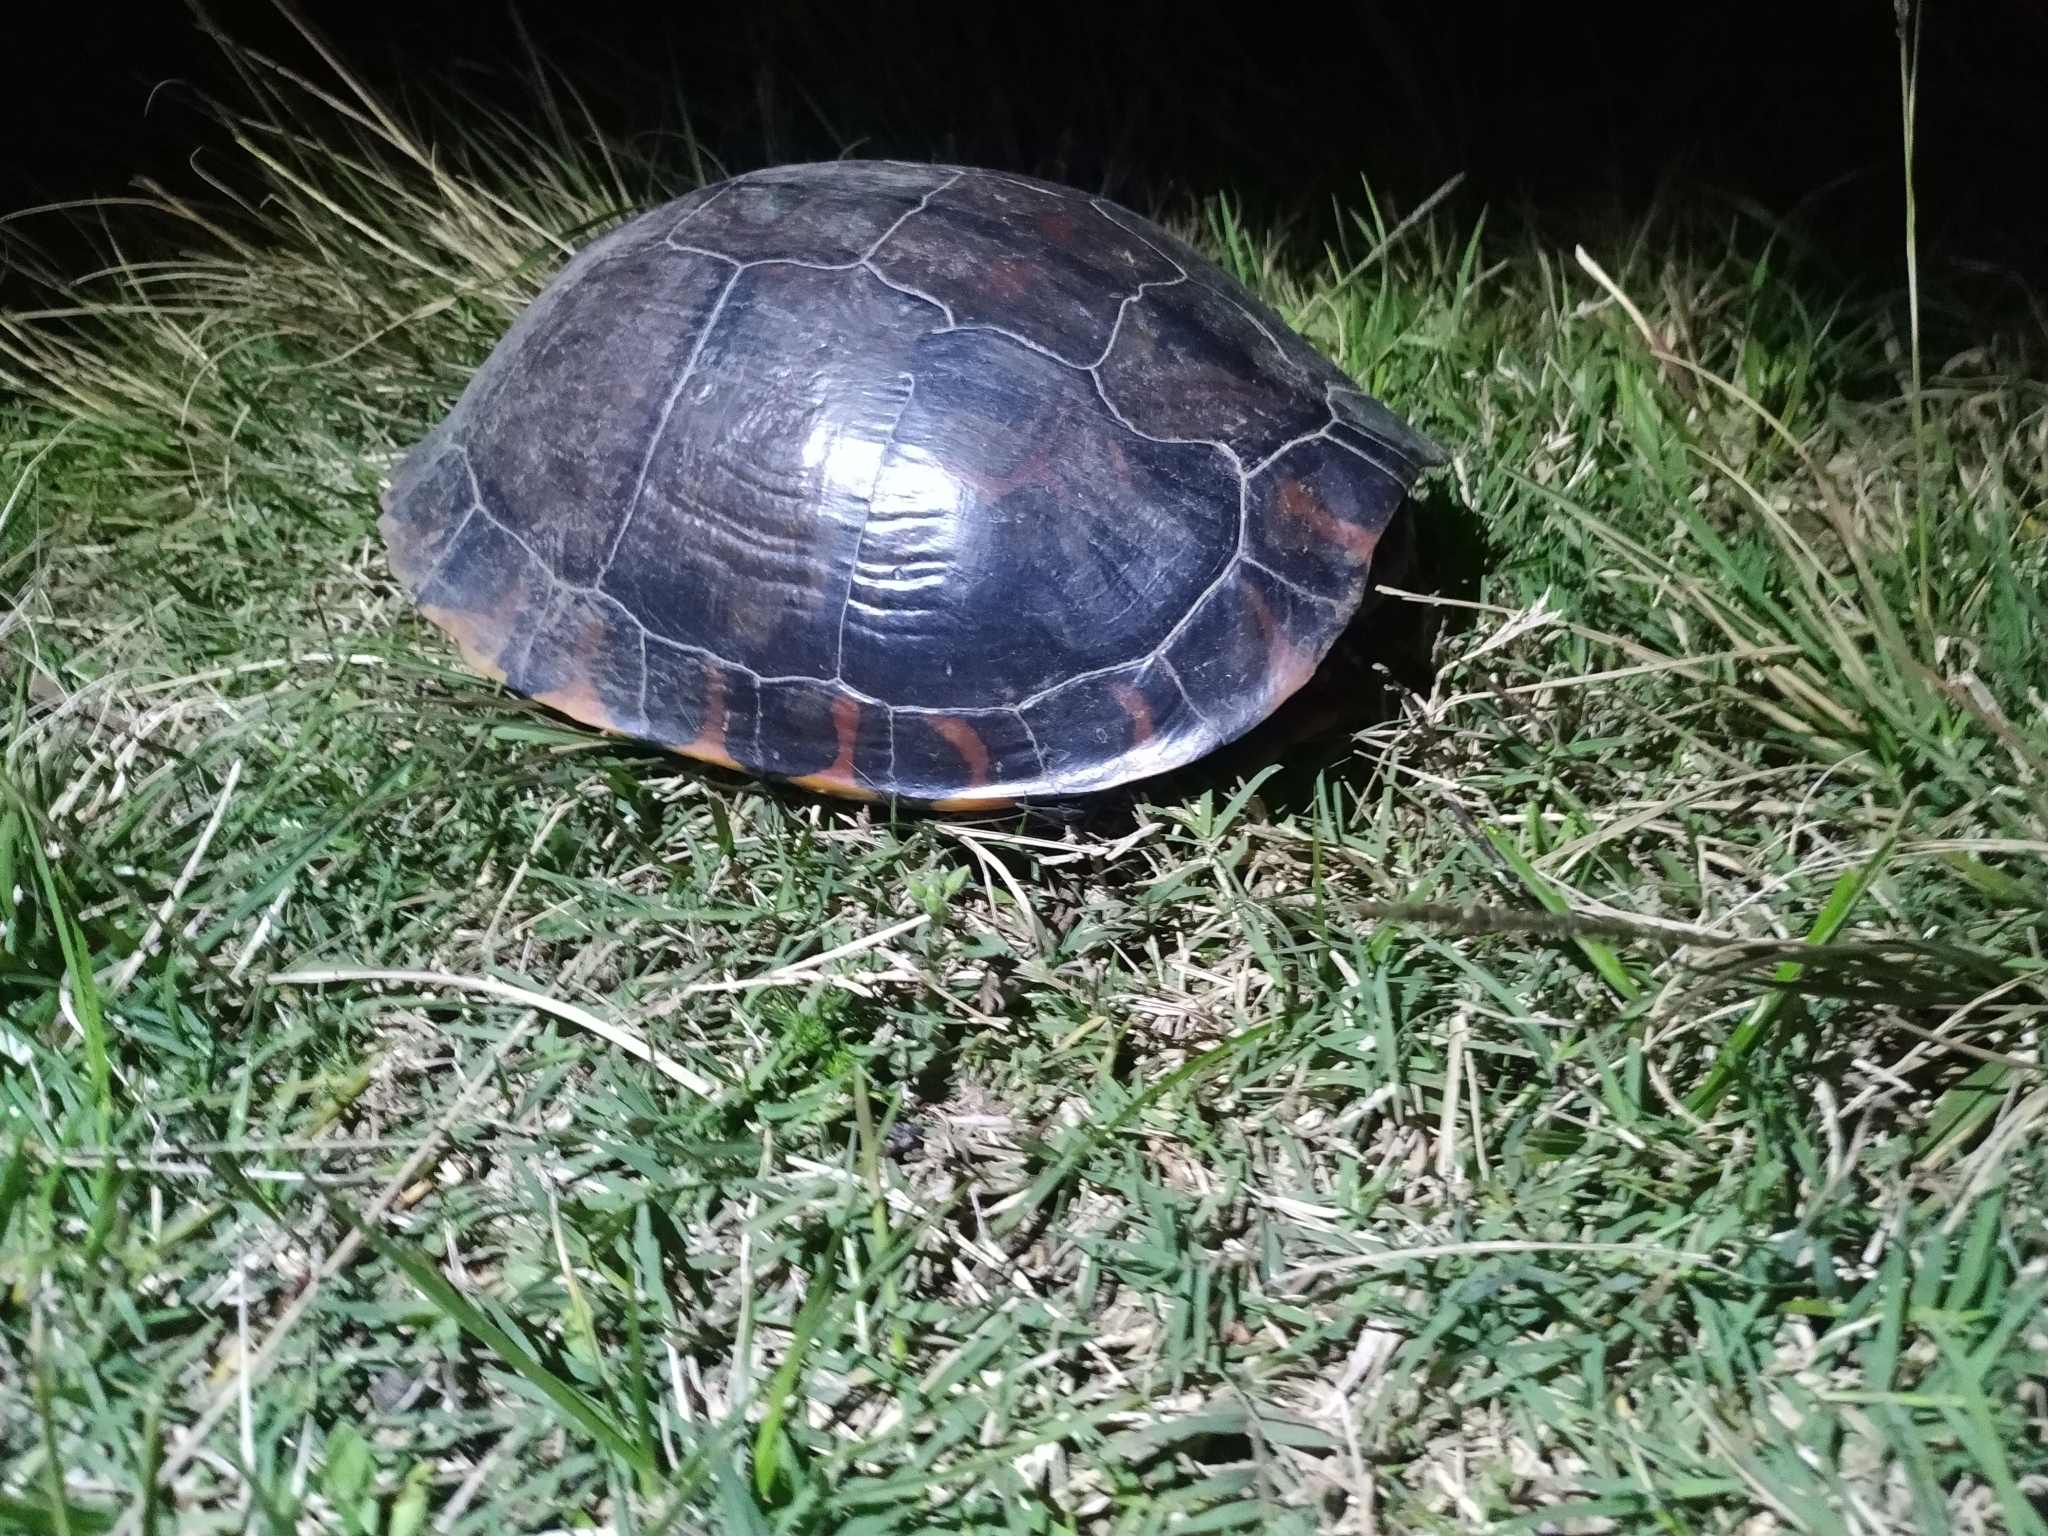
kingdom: Animalia
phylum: Chordata
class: Testudines
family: Emydidae
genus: Trachemys
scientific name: Trachemys dorbigni
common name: Black-bellied slider
